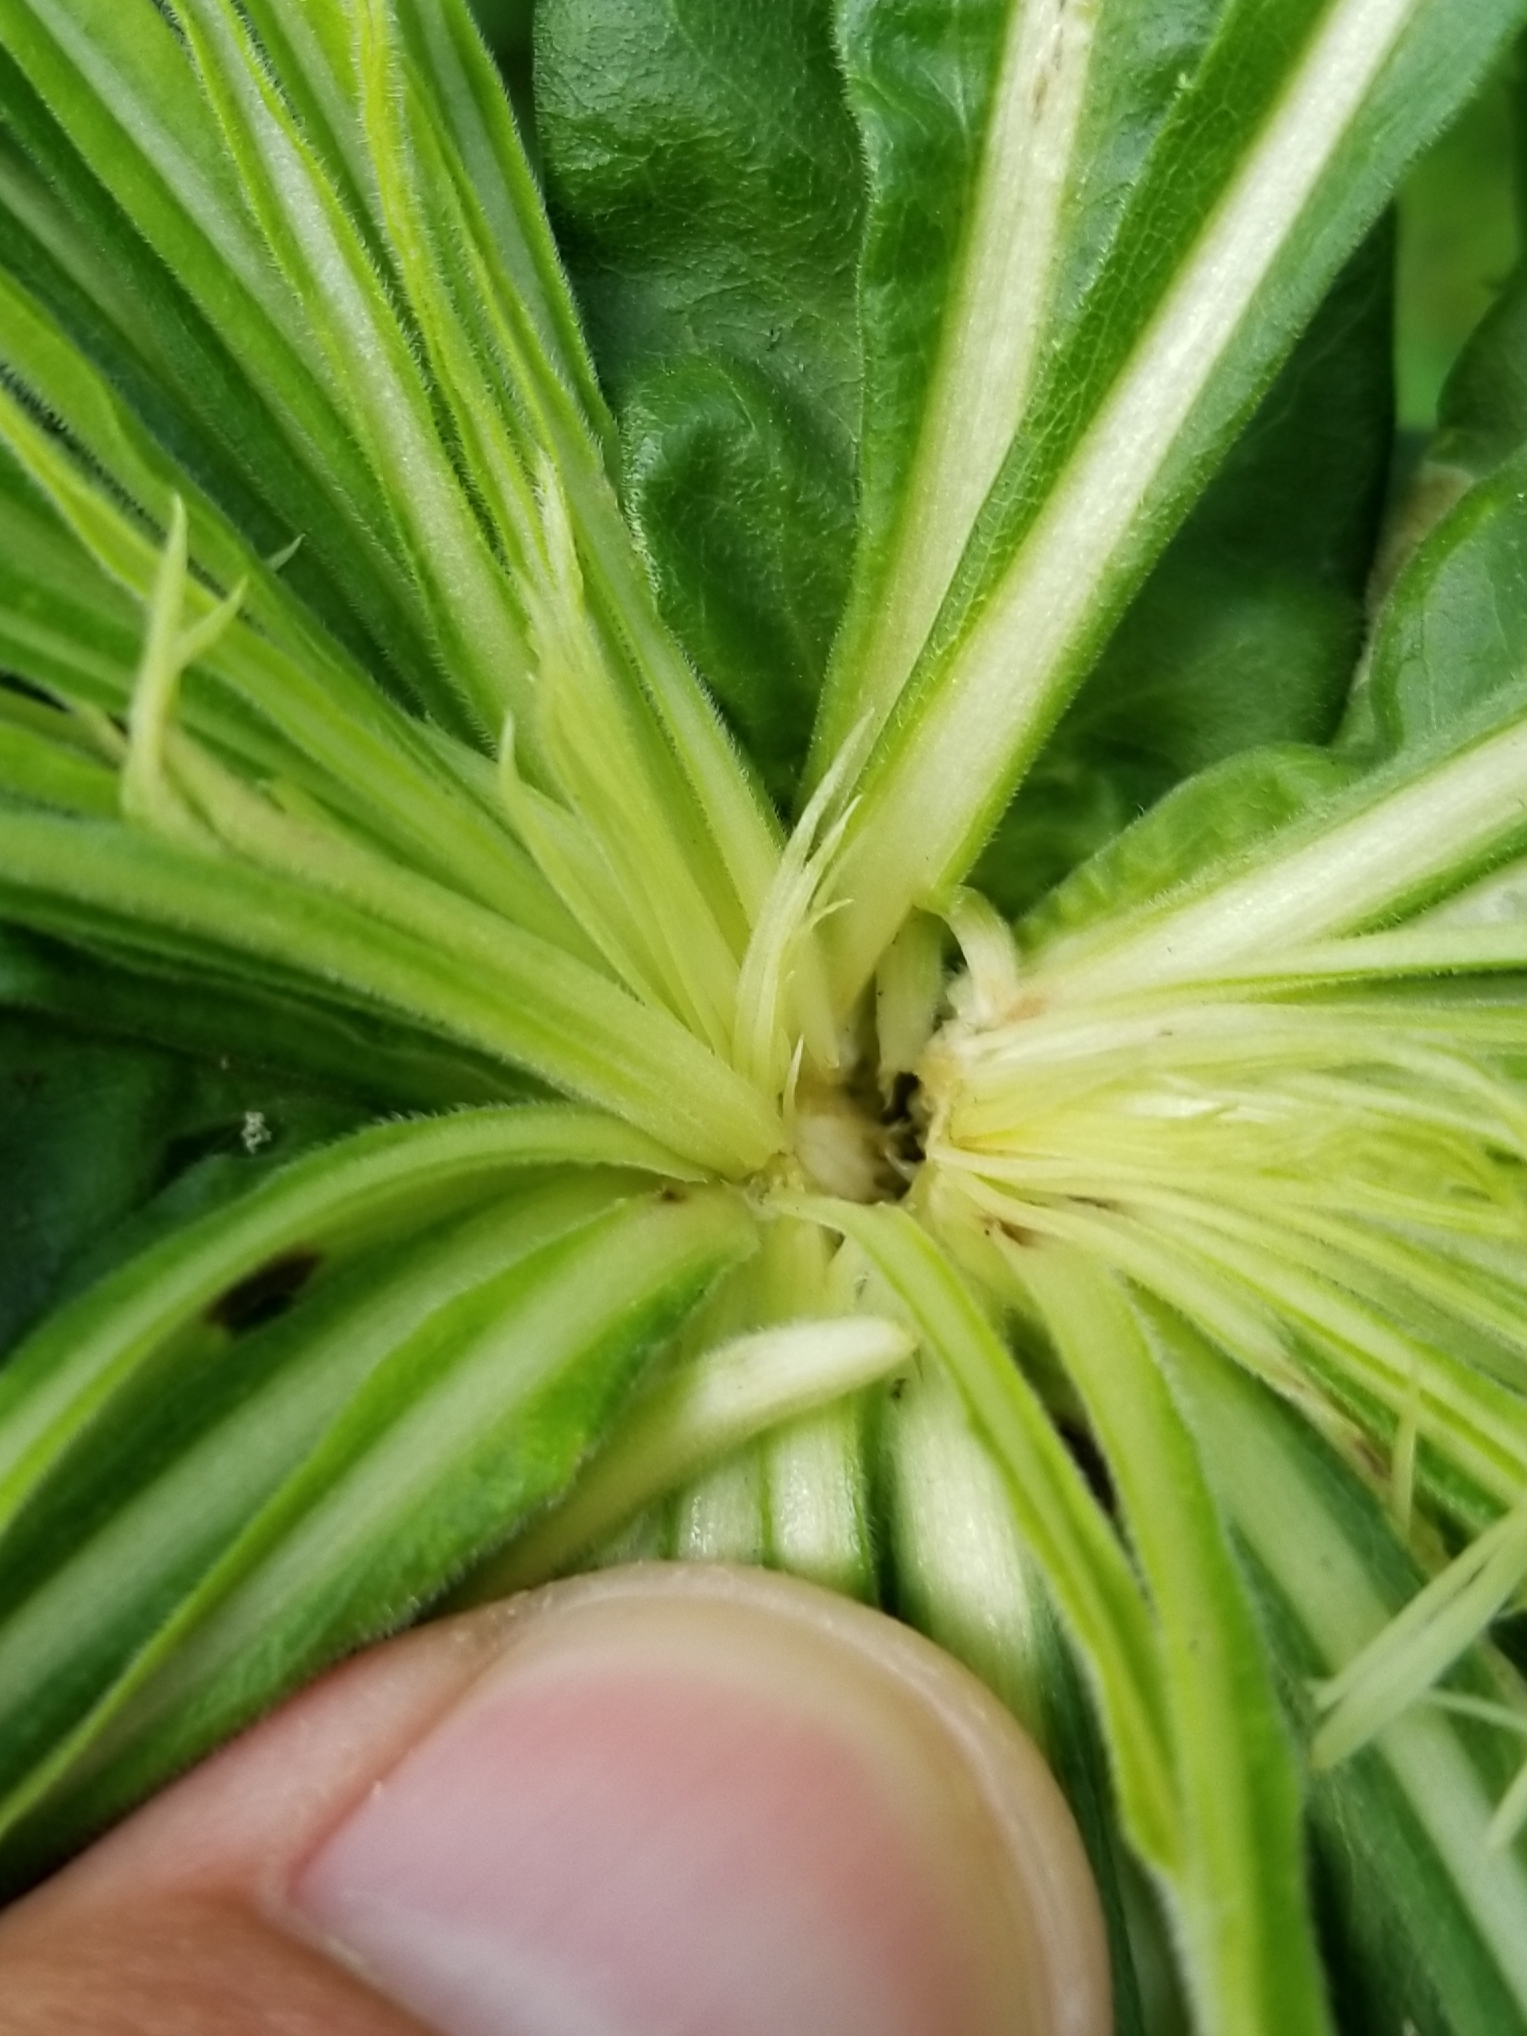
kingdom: Animalia
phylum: Arthropoda
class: Insecta
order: Diptera
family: Cecidomyiidae
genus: Rhopalomyia
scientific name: Rhopalomyia solidaginis
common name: Goldenrod bunch gall midge
